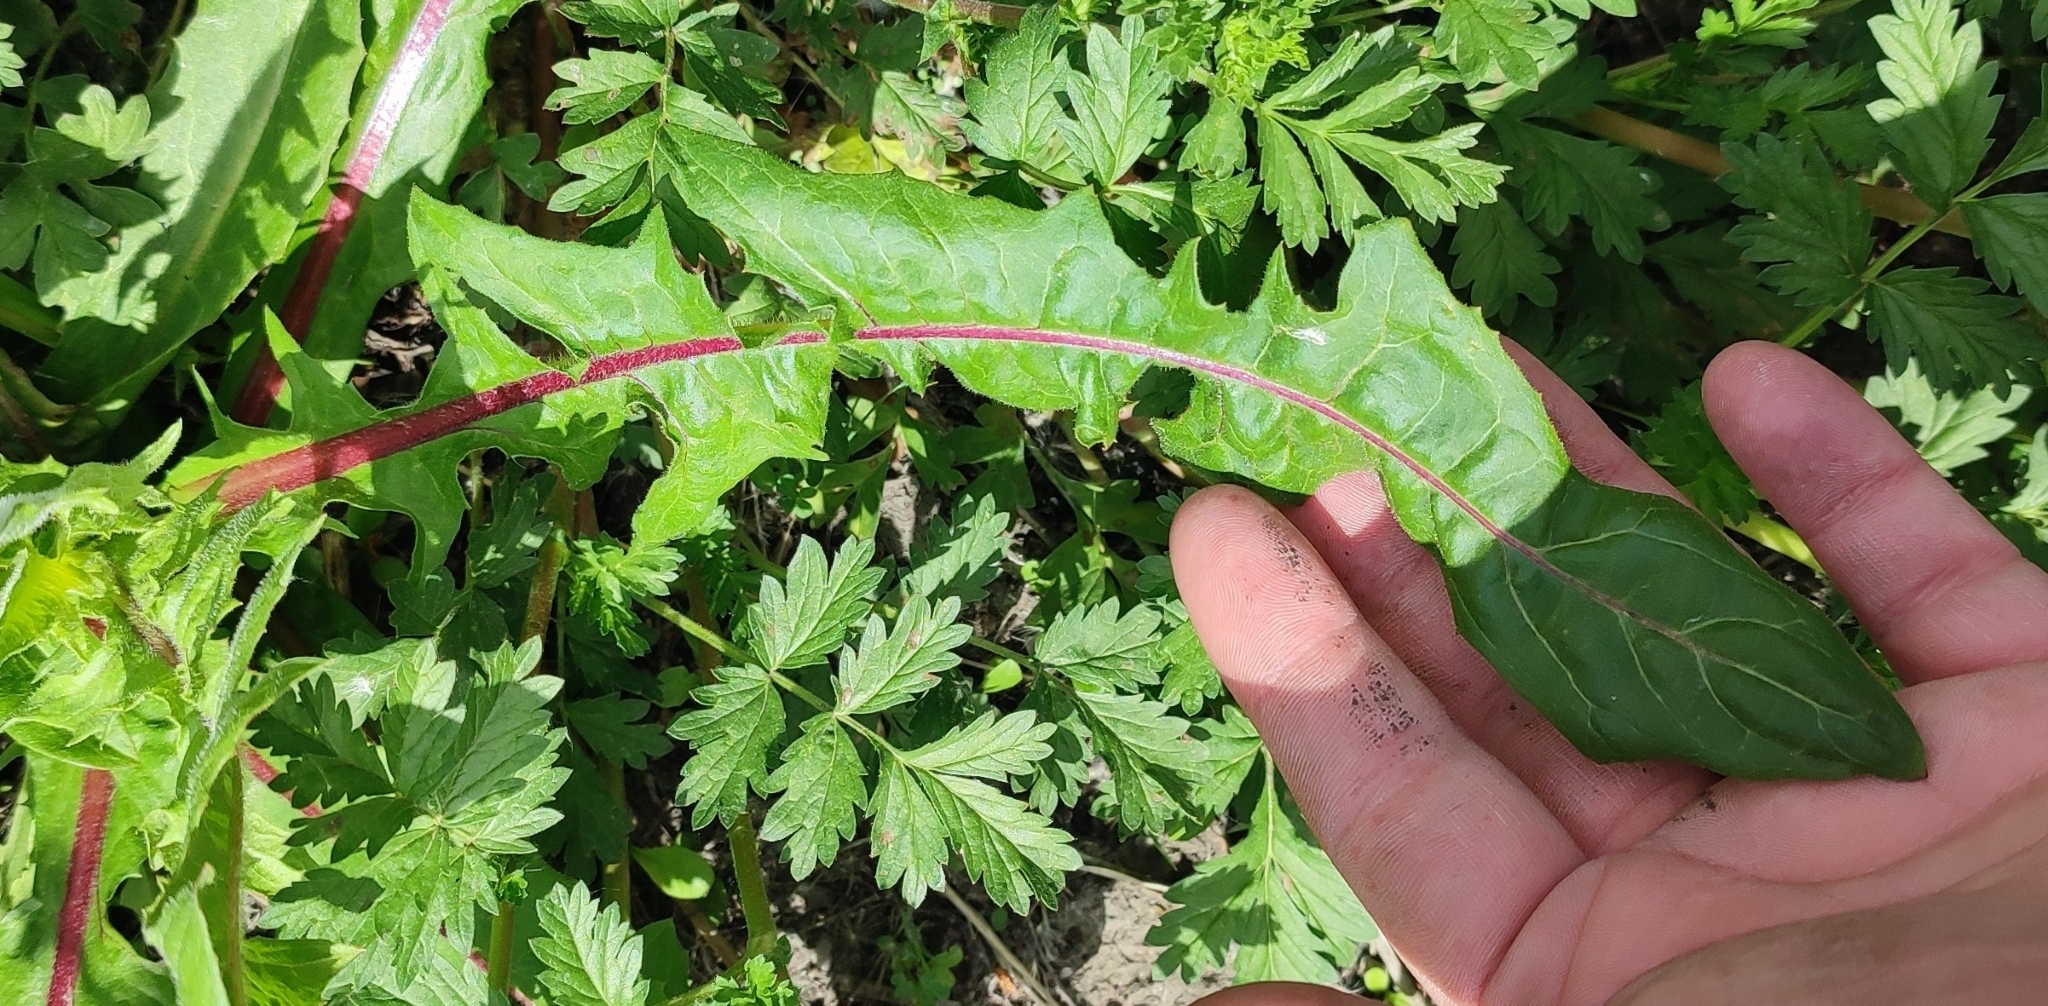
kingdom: Plantae
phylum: Tracheophyta
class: Magnoliopsida
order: Asterales
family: Asteraceae
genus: Cichorium
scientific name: Cichorium intybus
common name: Chicory
